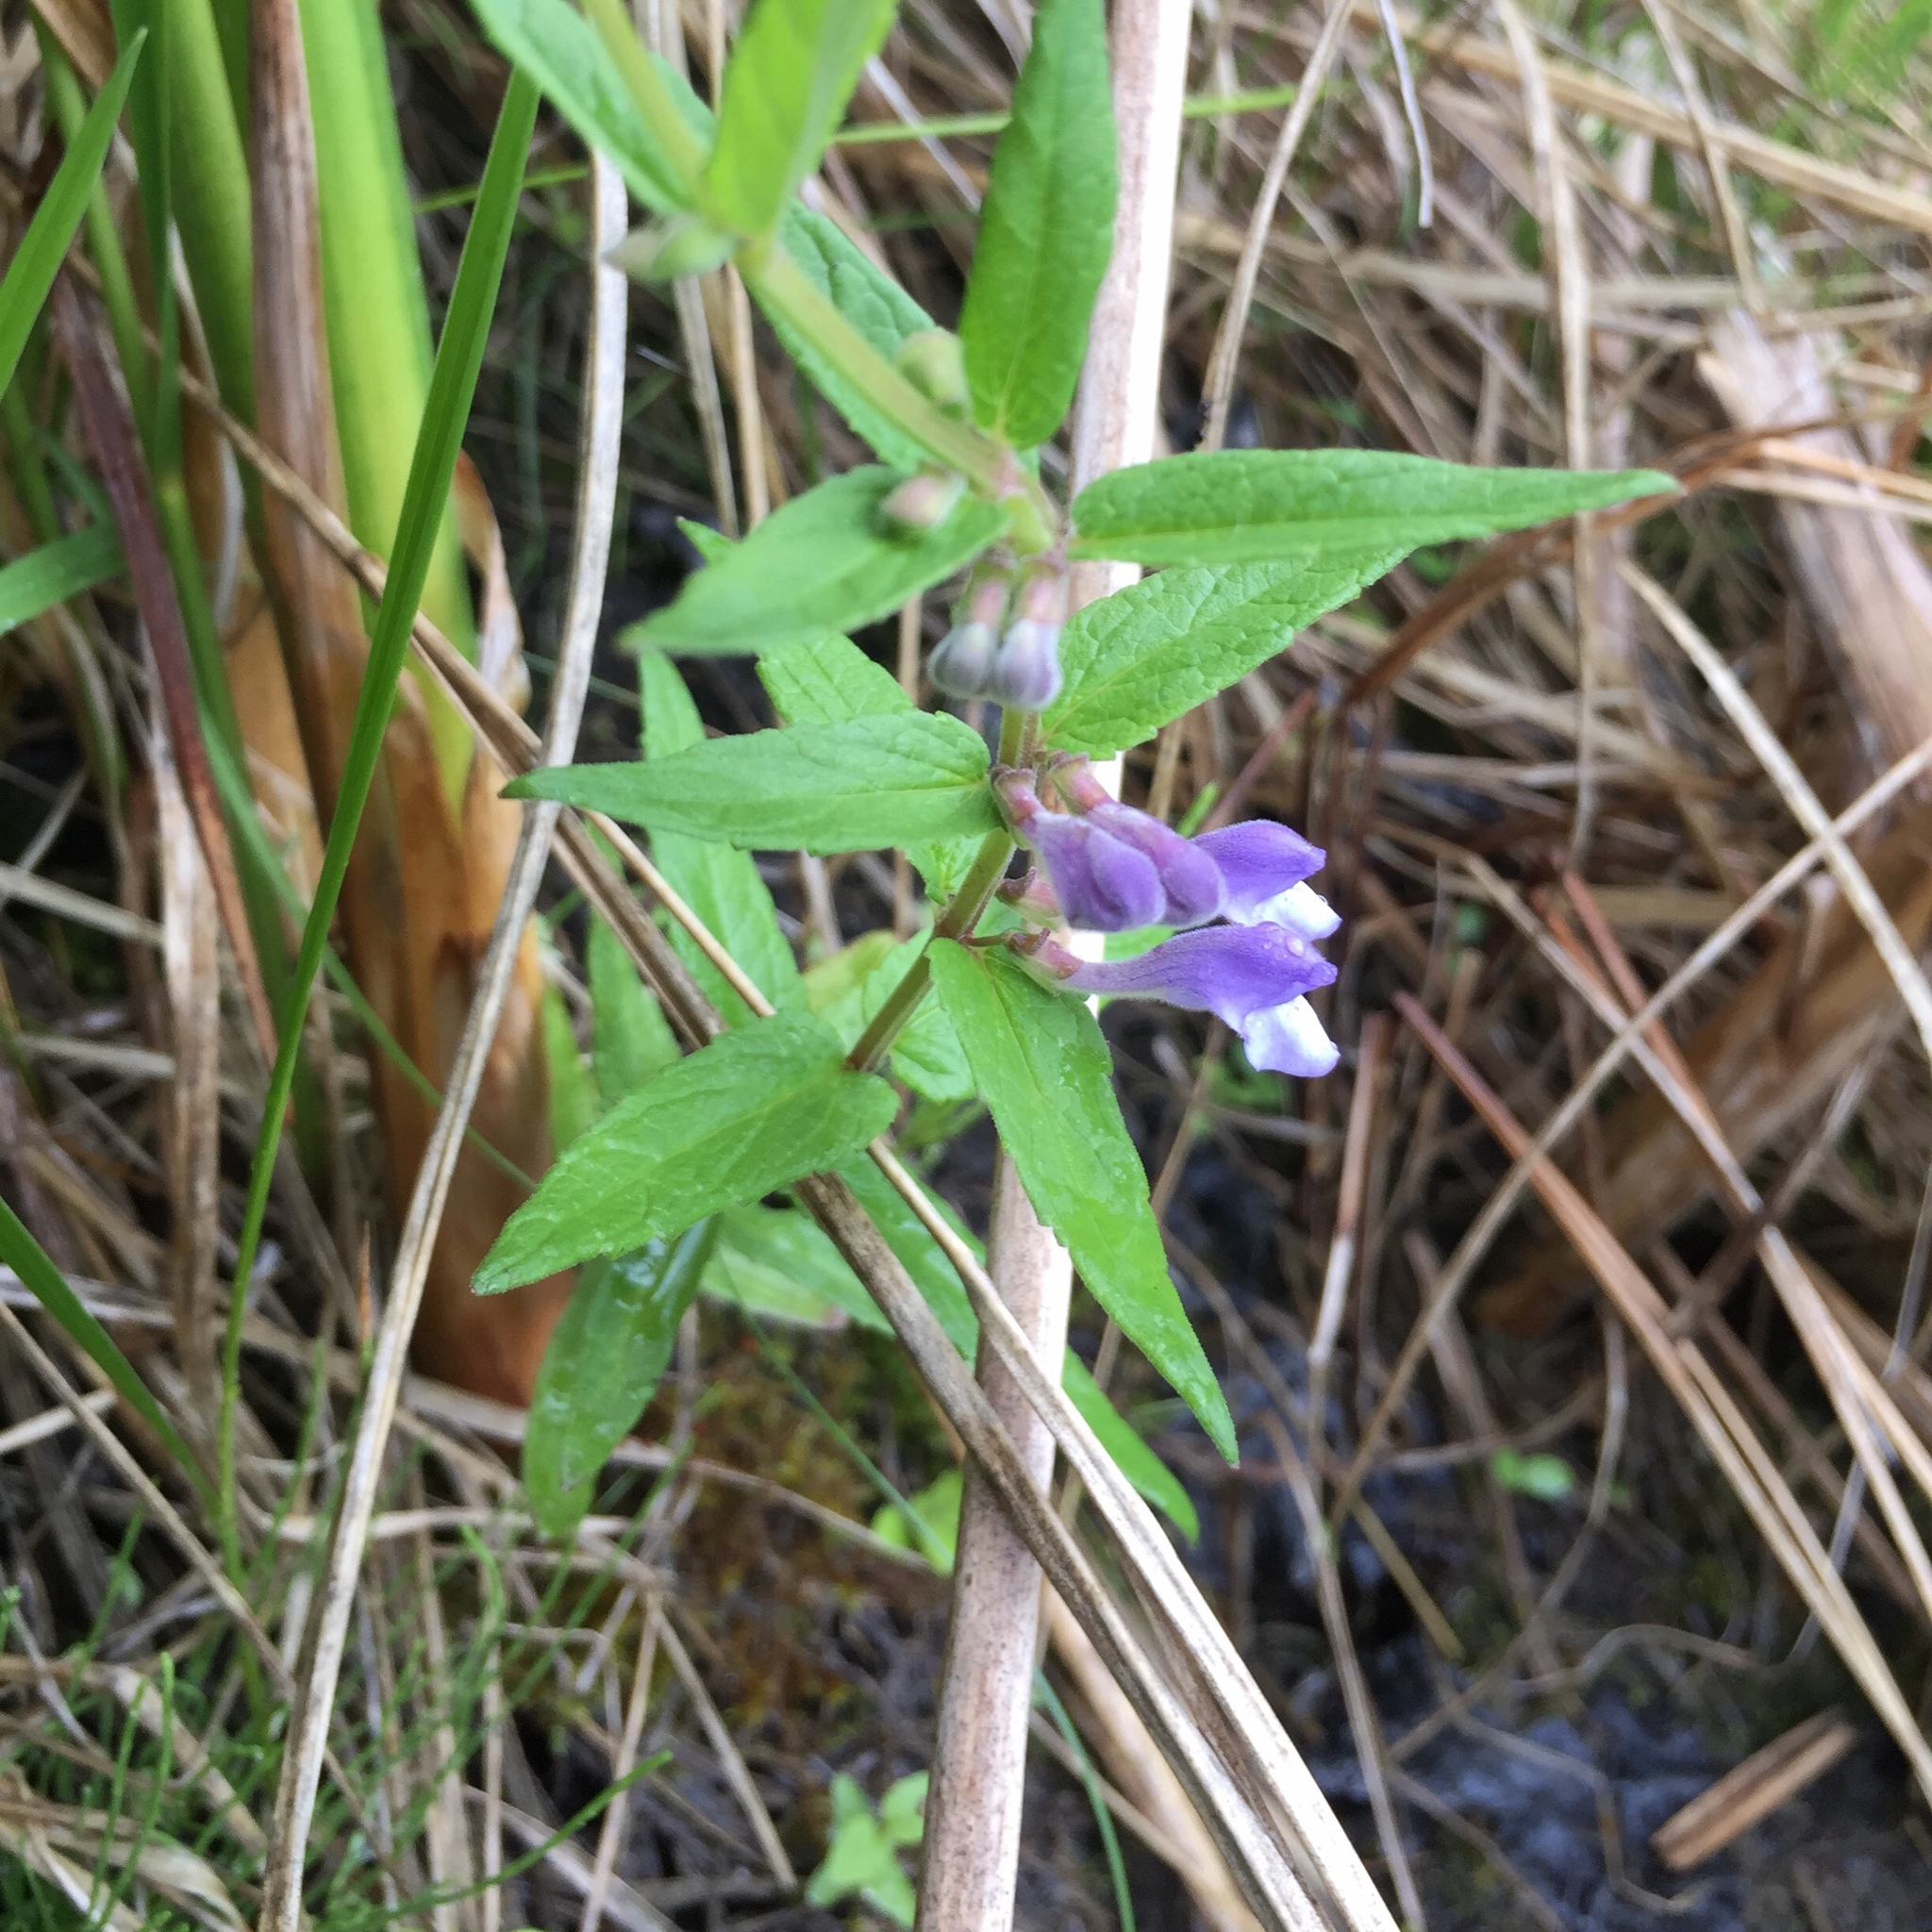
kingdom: Plantae
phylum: Tracheophyta
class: Magnoliopsida
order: Lamiales
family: Lamiaceae
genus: Scutellaria
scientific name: Scutellaria galericulata
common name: Skullcap
